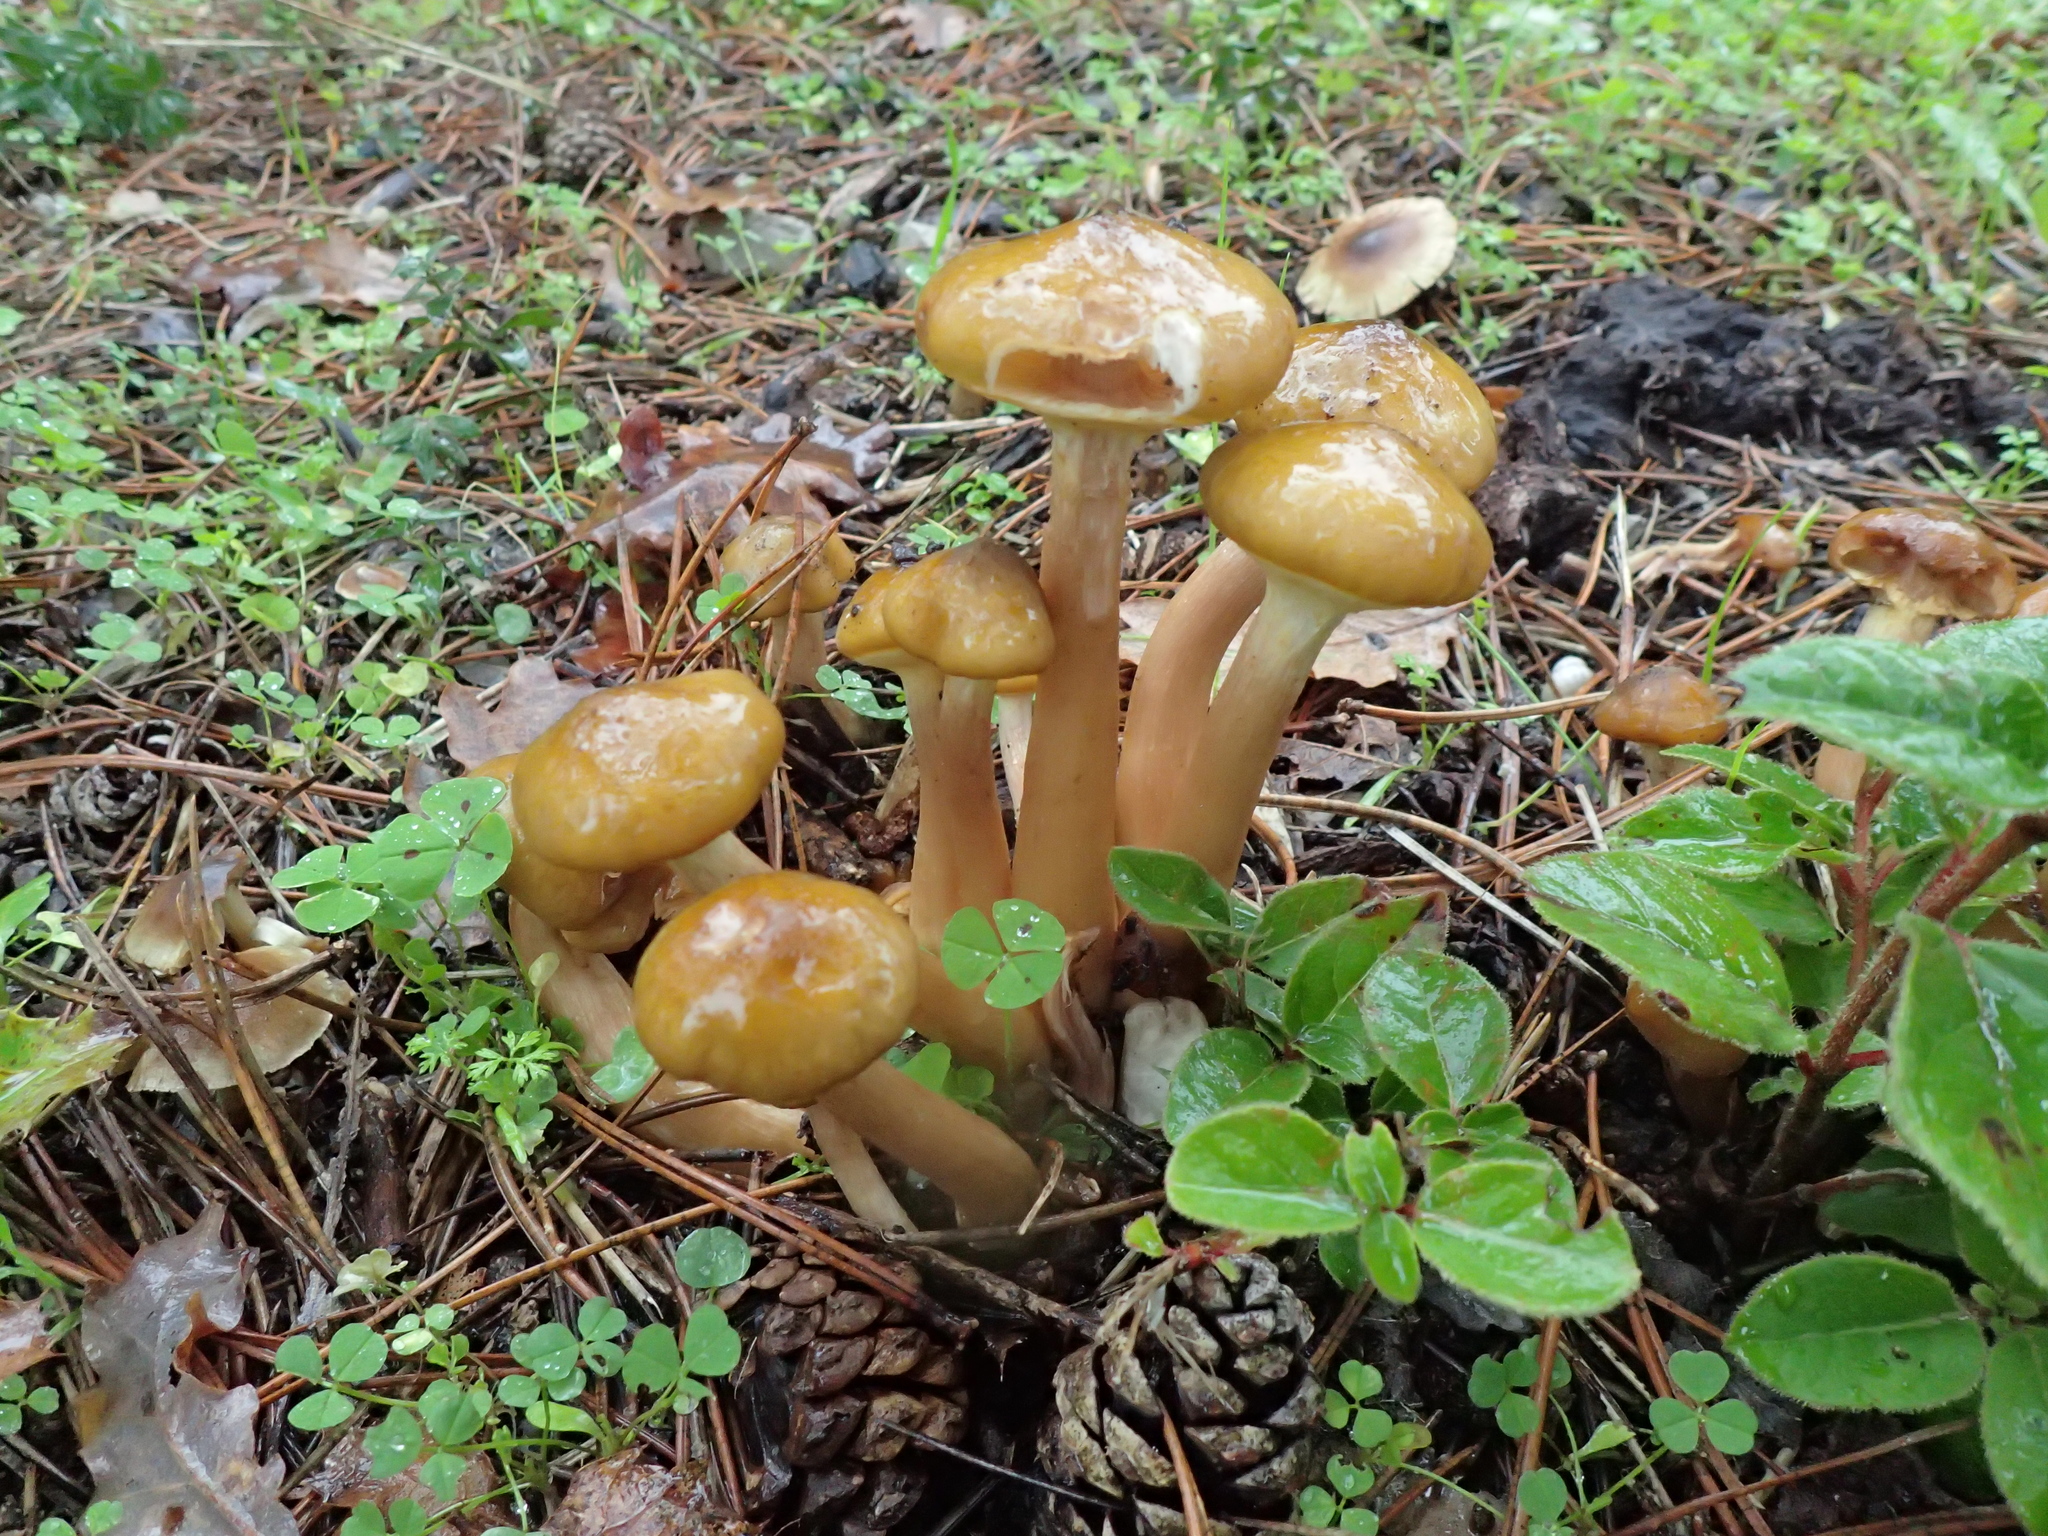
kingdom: Fungi
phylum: Basidiomycota
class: Agaricomycetes
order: Agaricales
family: Physalacriaceae
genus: Armillaria
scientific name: Armillaria mellea
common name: Honey fungus
